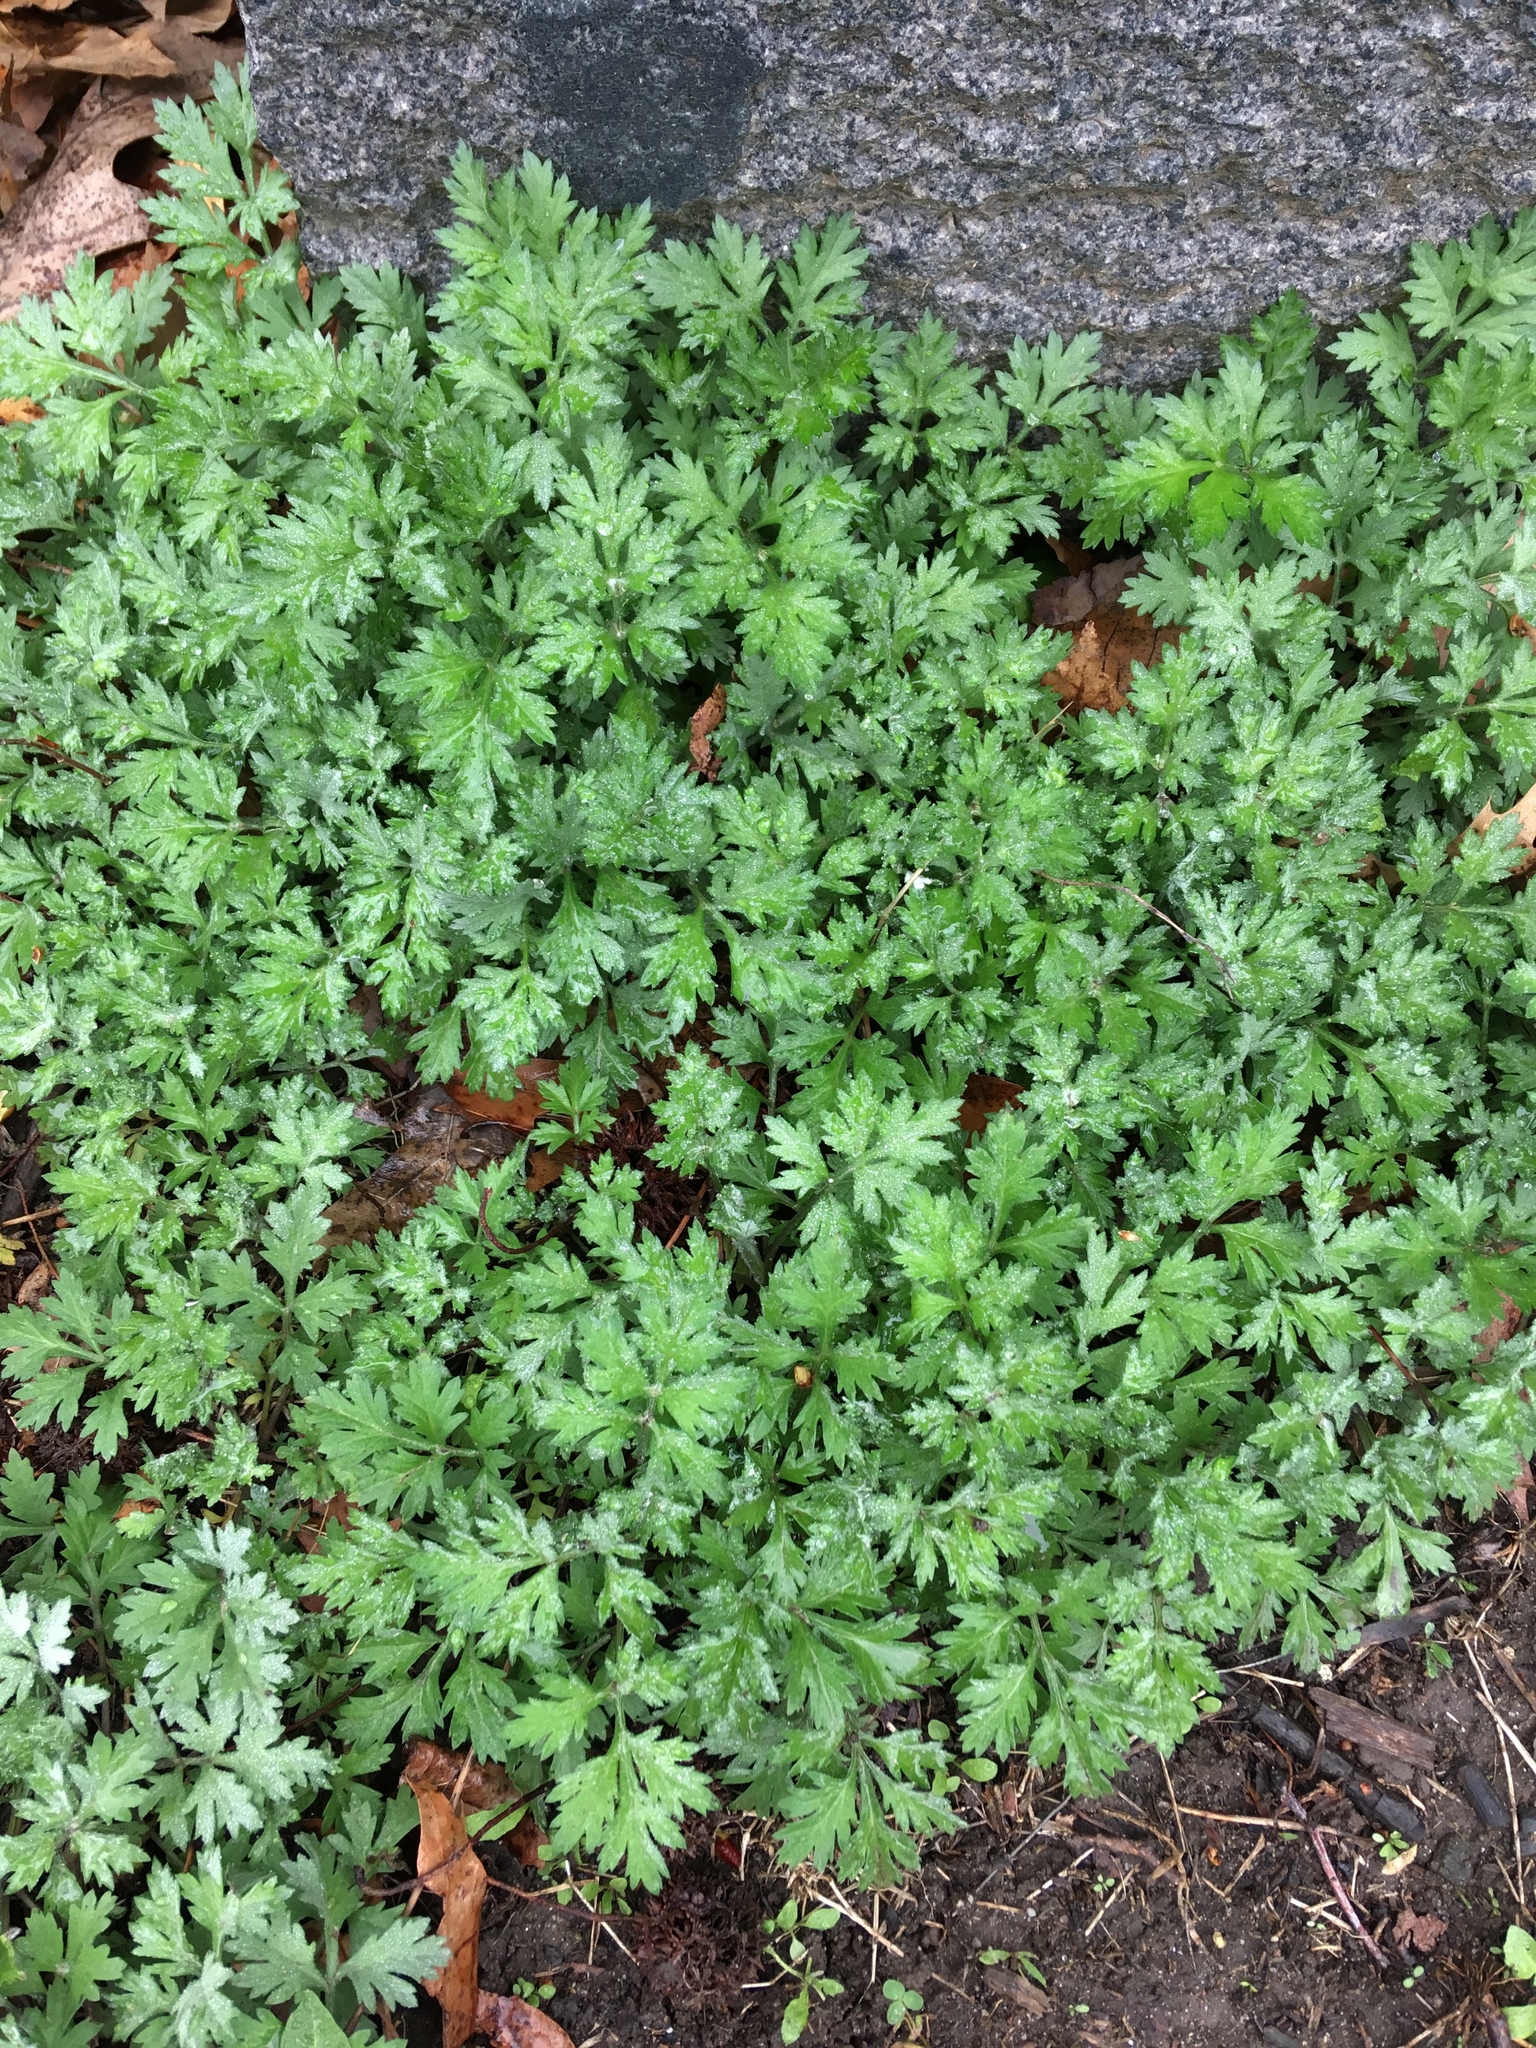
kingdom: Plantae
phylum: Tracheophyta
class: Magnoliopsida
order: Asterales
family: Asteraceae
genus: Artemisia
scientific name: Artemisia vulgaris
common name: Mugwort
